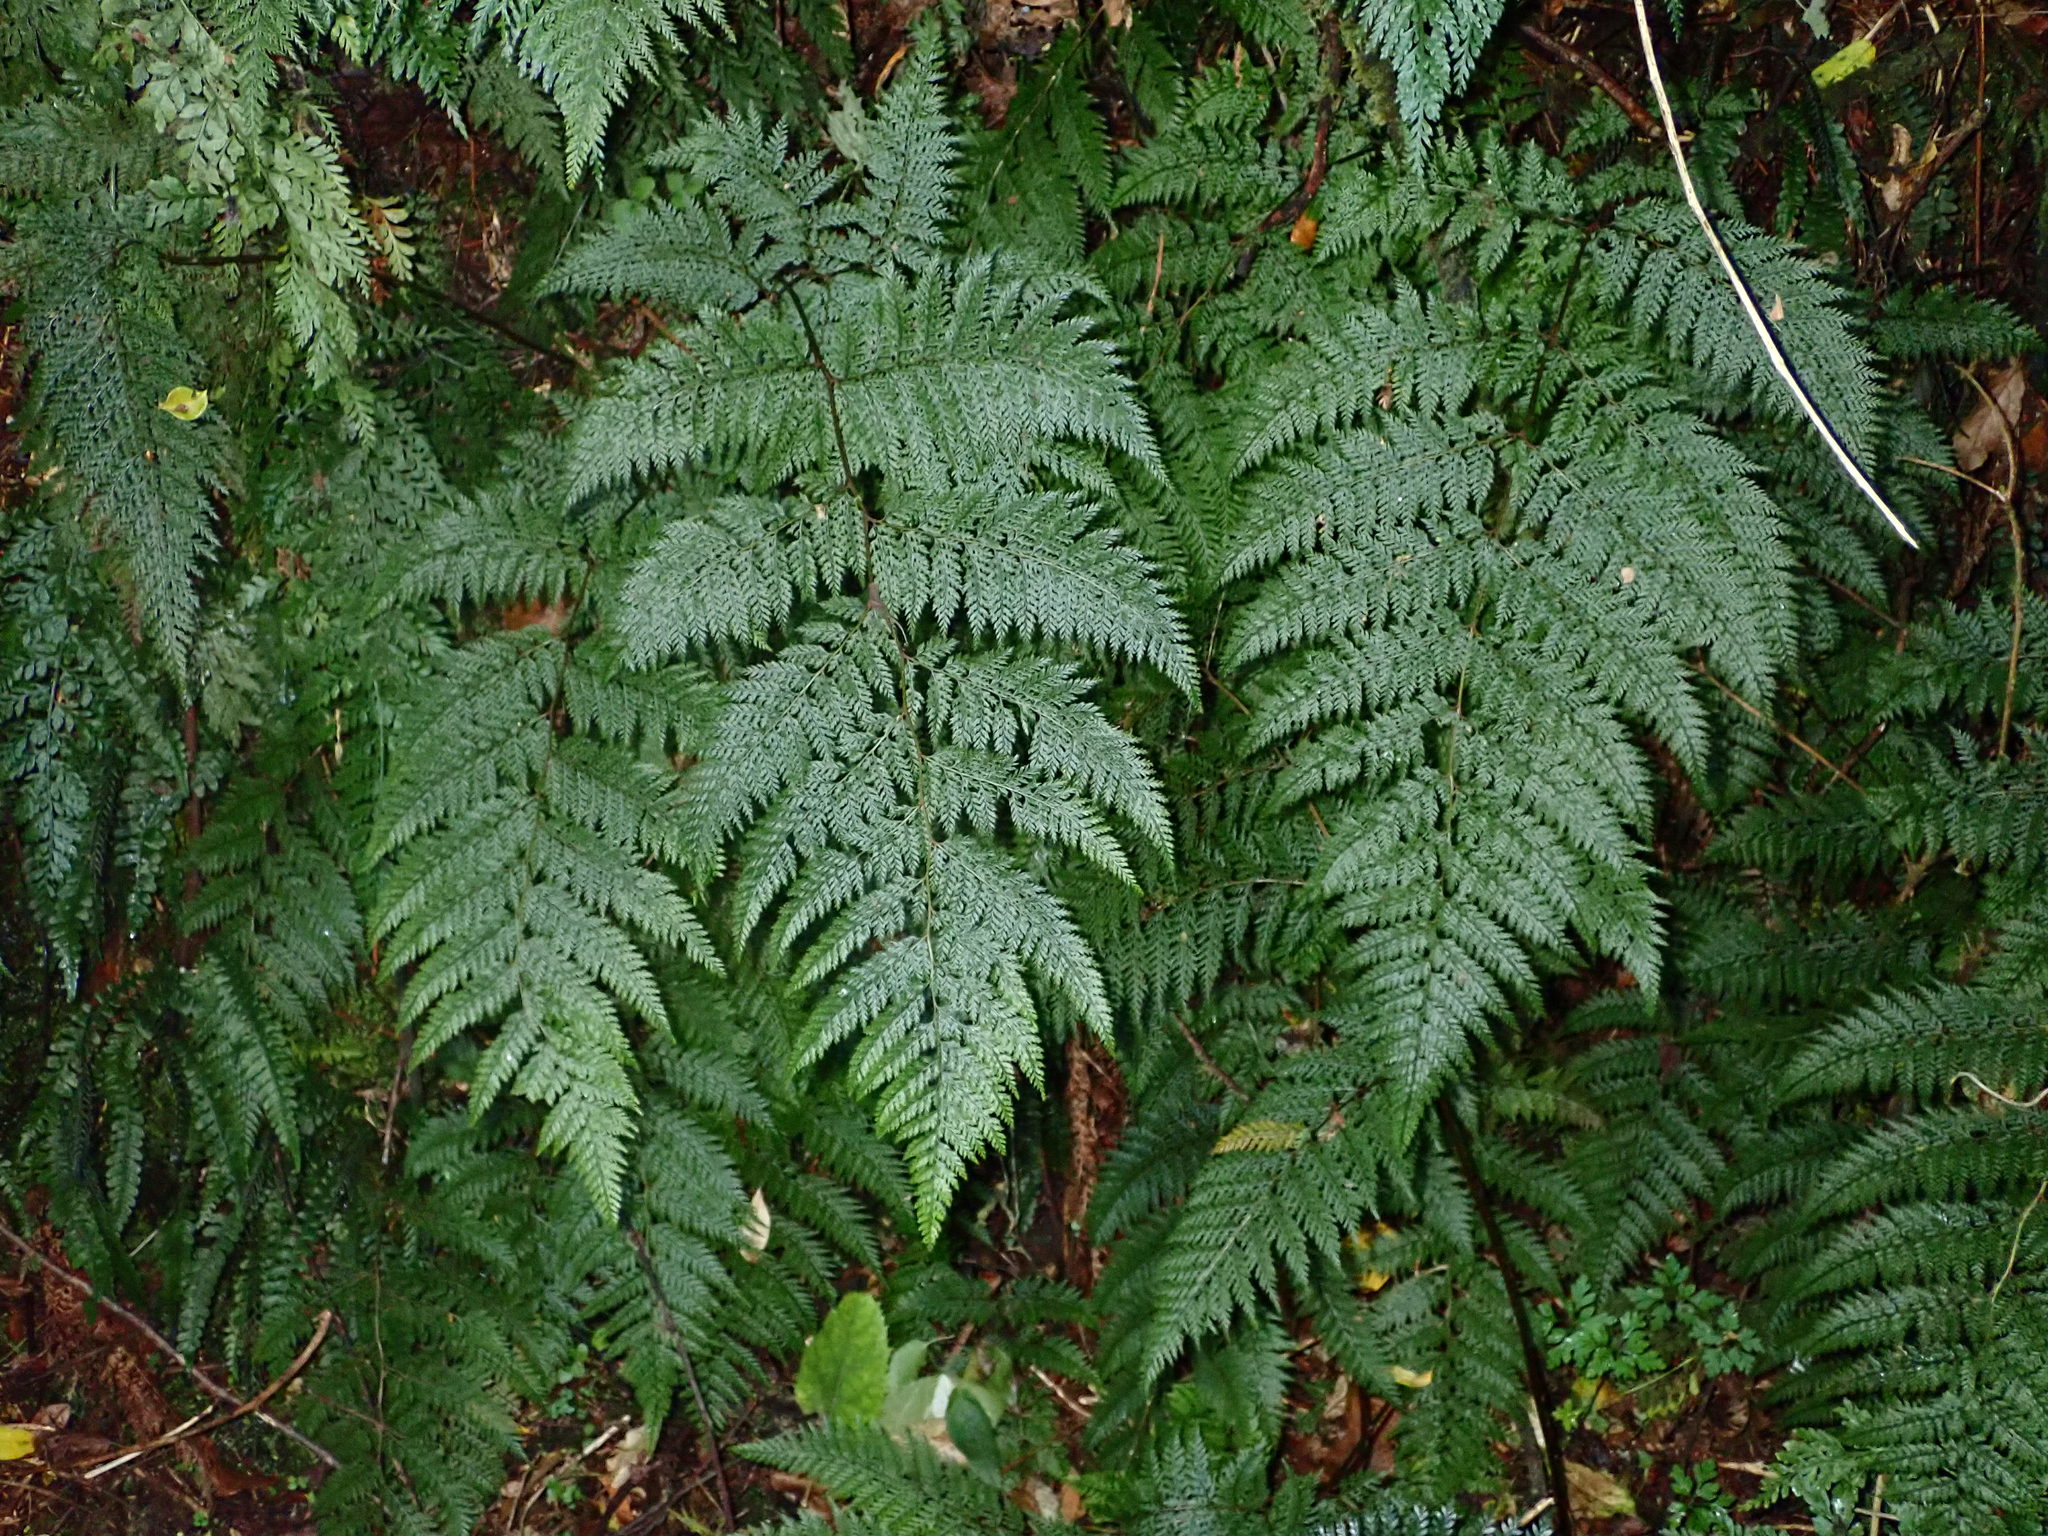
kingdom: Plantae
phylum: Tracheophyta
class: Polypodiopsida
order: Polypodiales
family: Dennstaedtiaceae
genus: Dennstaedtia
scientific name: Dennstaedtia novae-zelandiae
